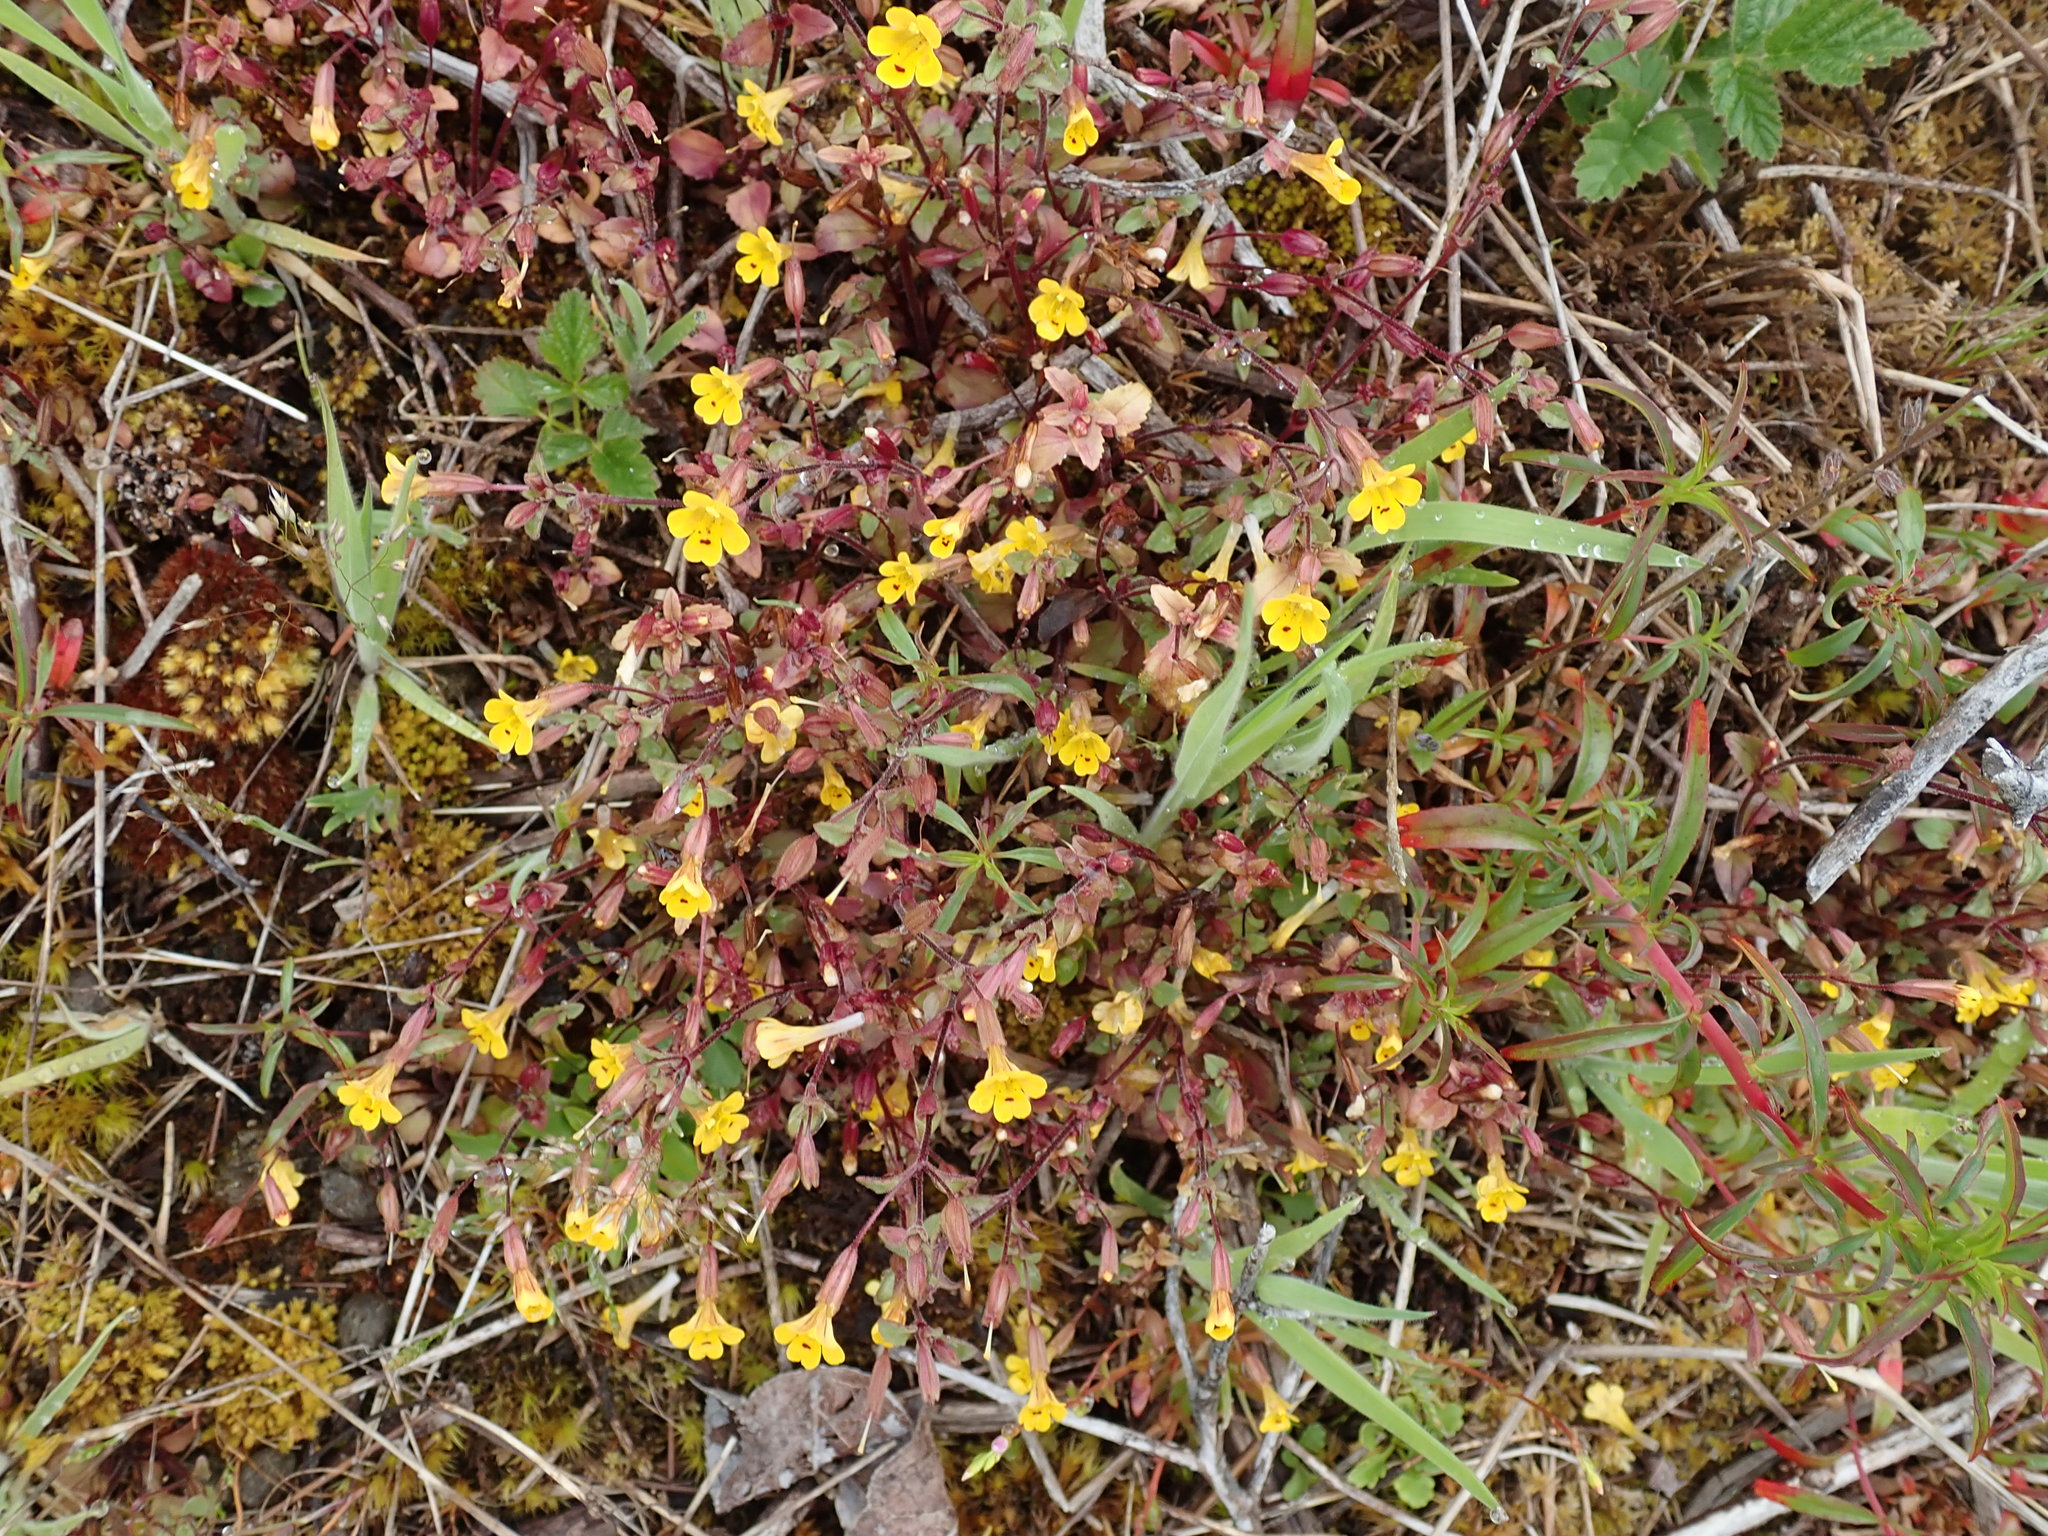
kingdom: Plantae
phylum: Tracheophyta
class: Magnoliopsida
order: Lamiales
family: Phrymaceae
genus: Erythranthe
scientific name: Erythranthe alsinoides
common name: Chickweed monkeyflower
